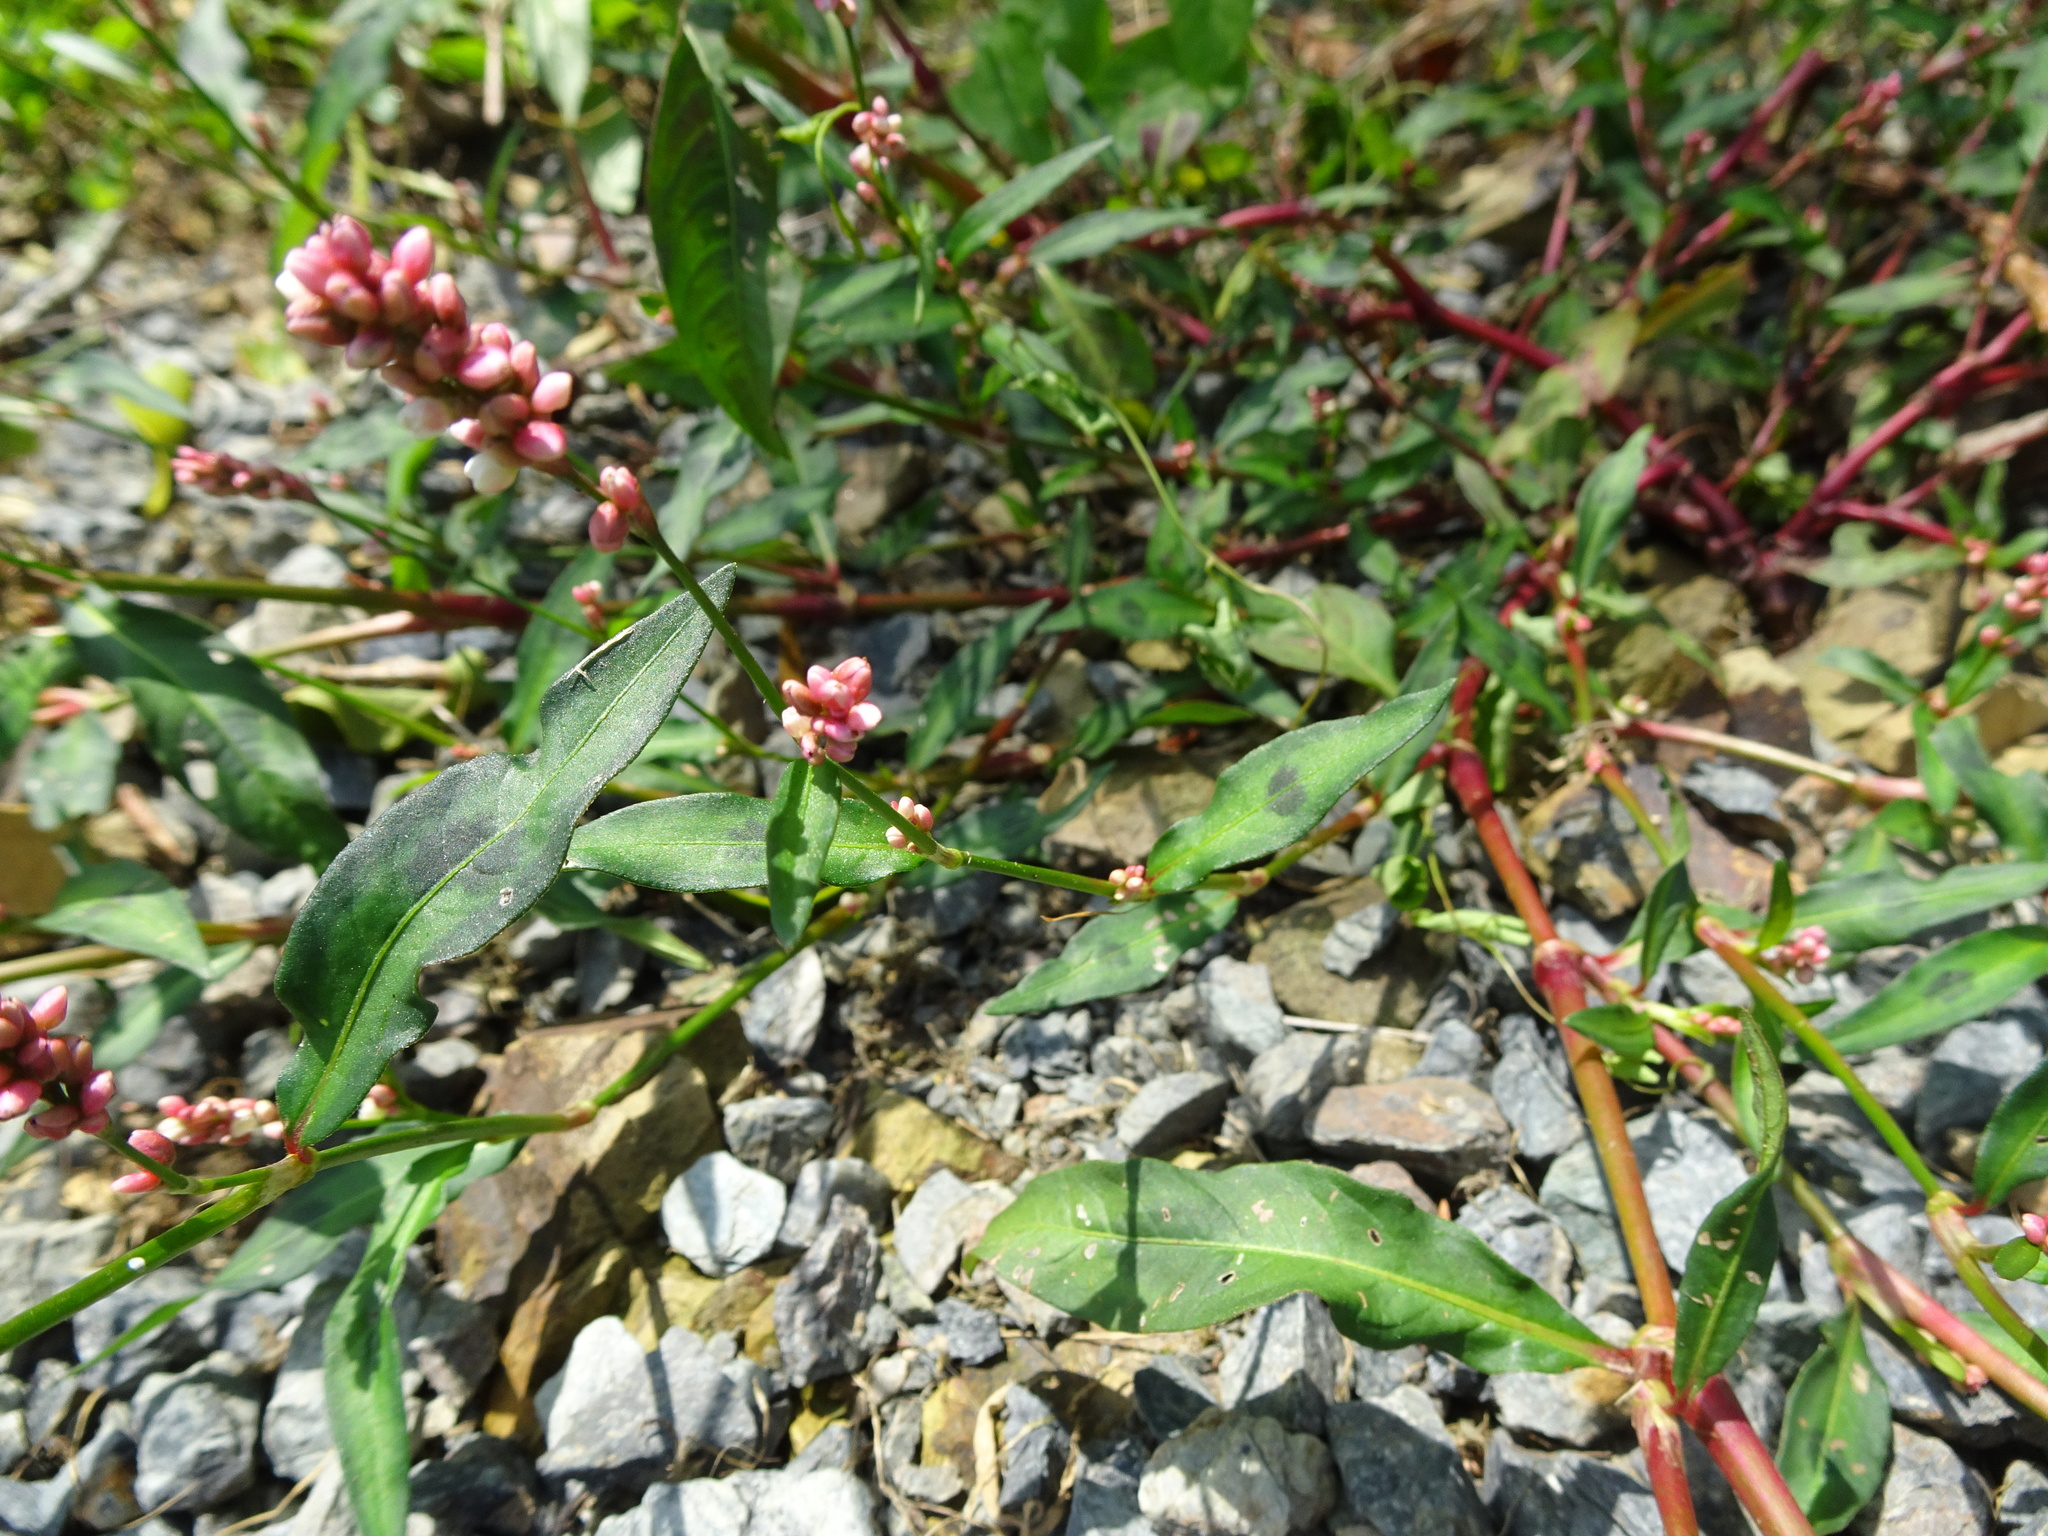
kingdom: Plantae
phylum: Tracheophyta
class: Magnoliopsida
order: Caryophyllales
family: Polygonaceae
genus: Persicaria
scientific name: Persicaria maculosa
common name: Redshank
